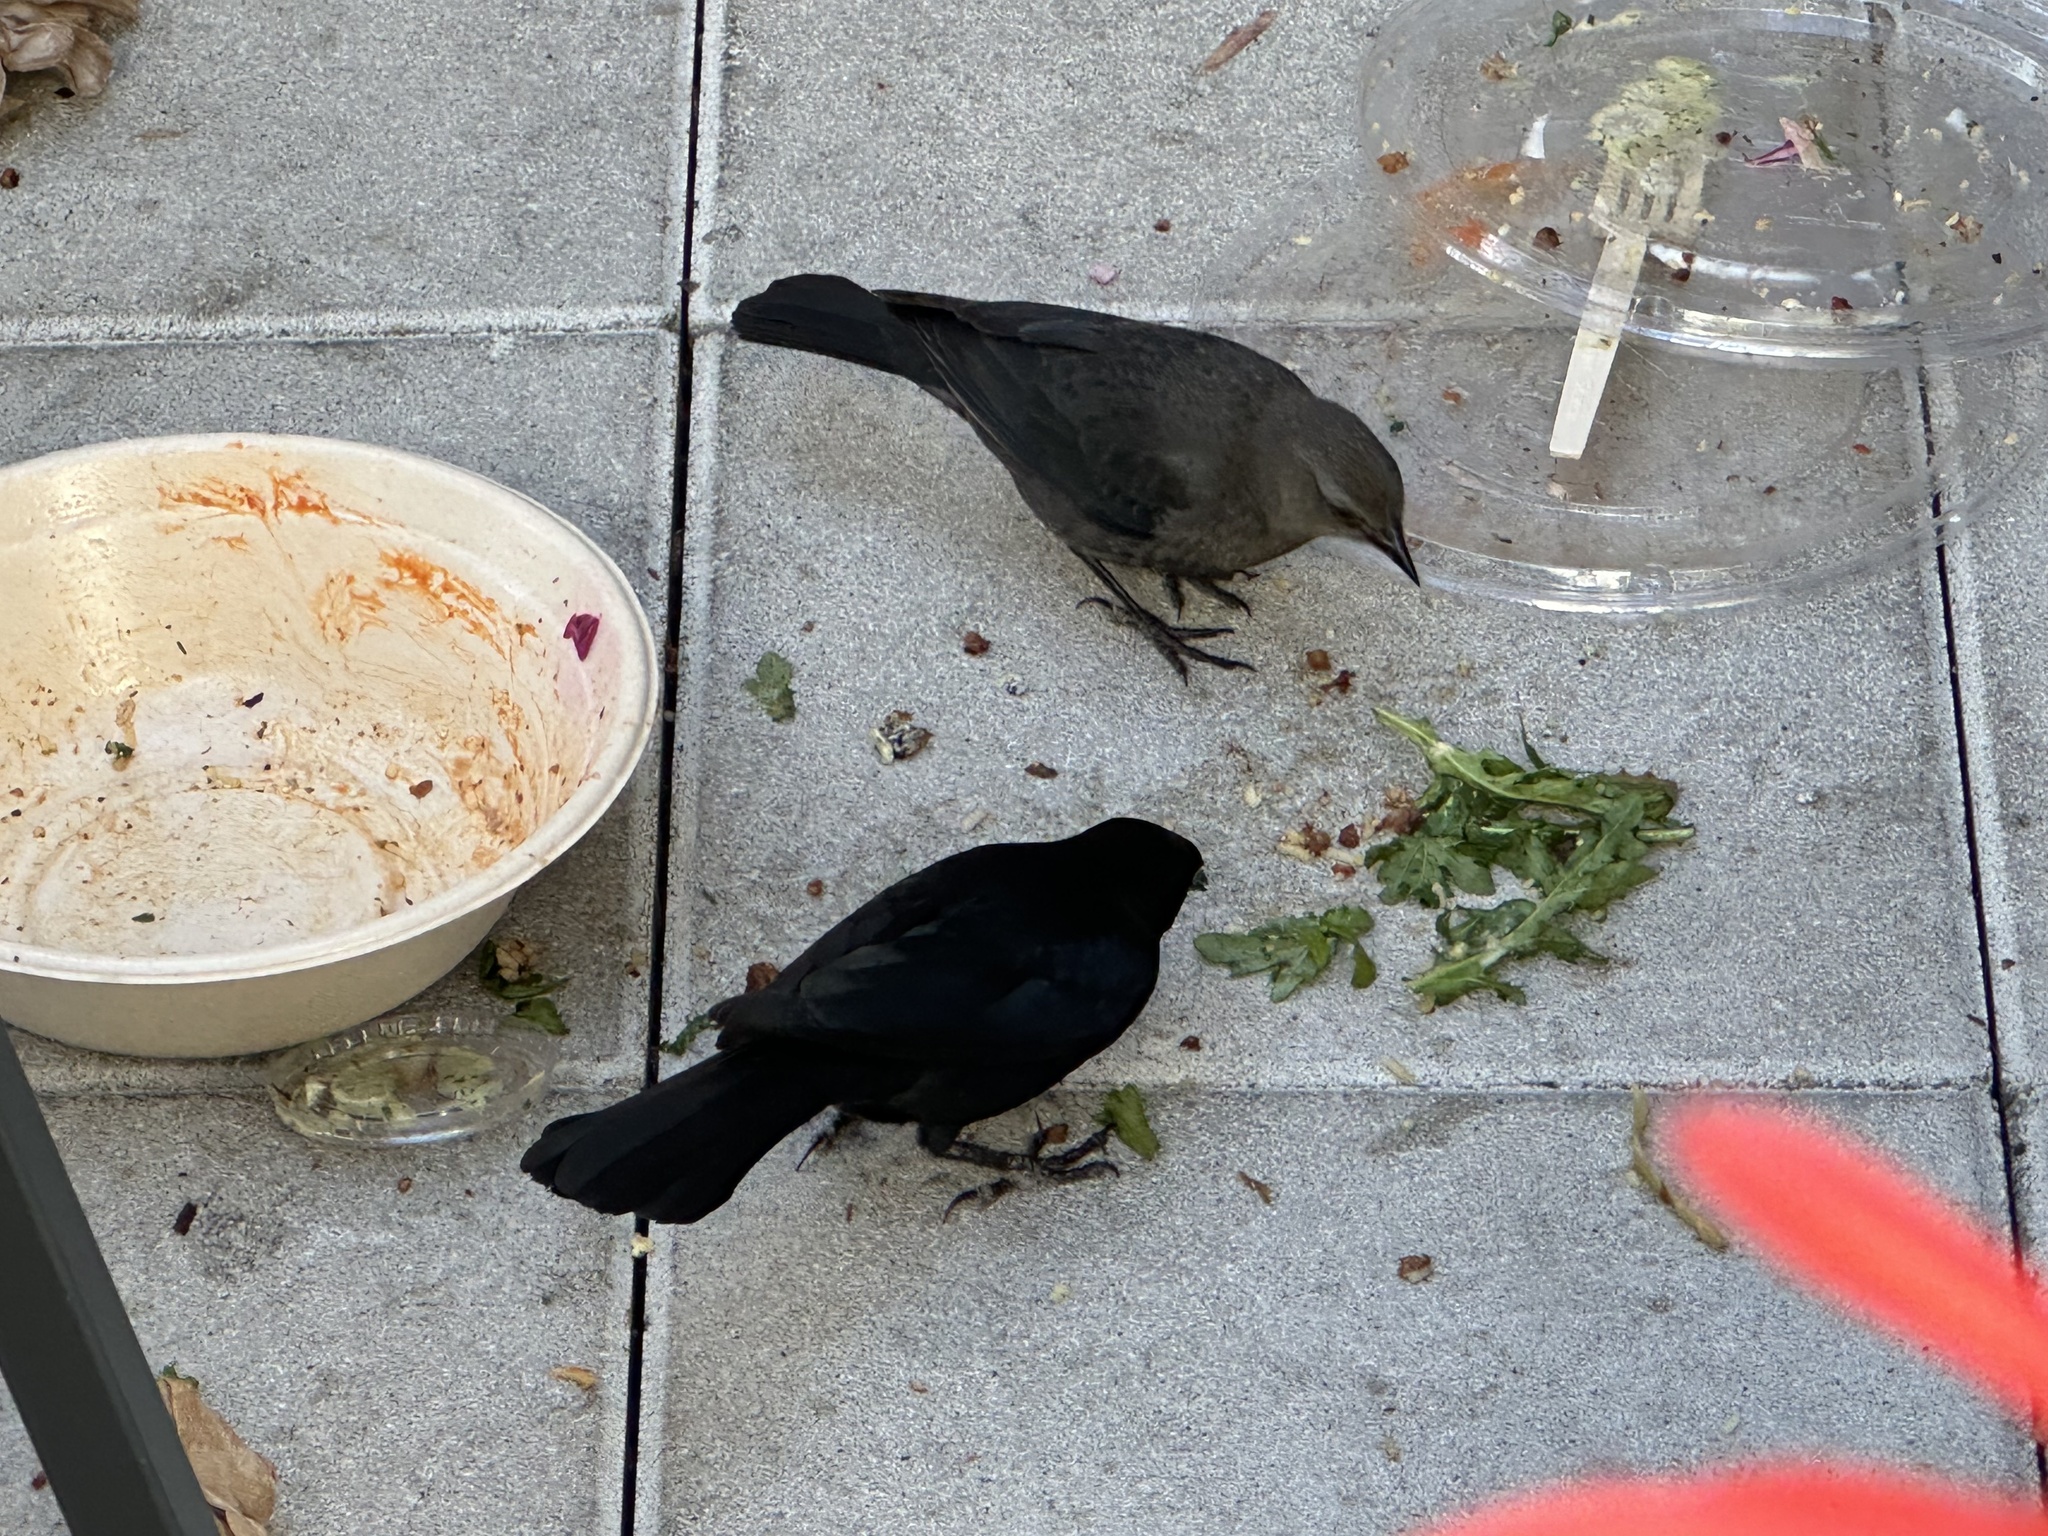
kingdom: Animalia
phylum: Chordata
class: Aves
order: Passeriformes
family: Icteridae
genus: Euphagus
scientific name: Euphagus cyanocephalus
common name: Brewer's blackbird
